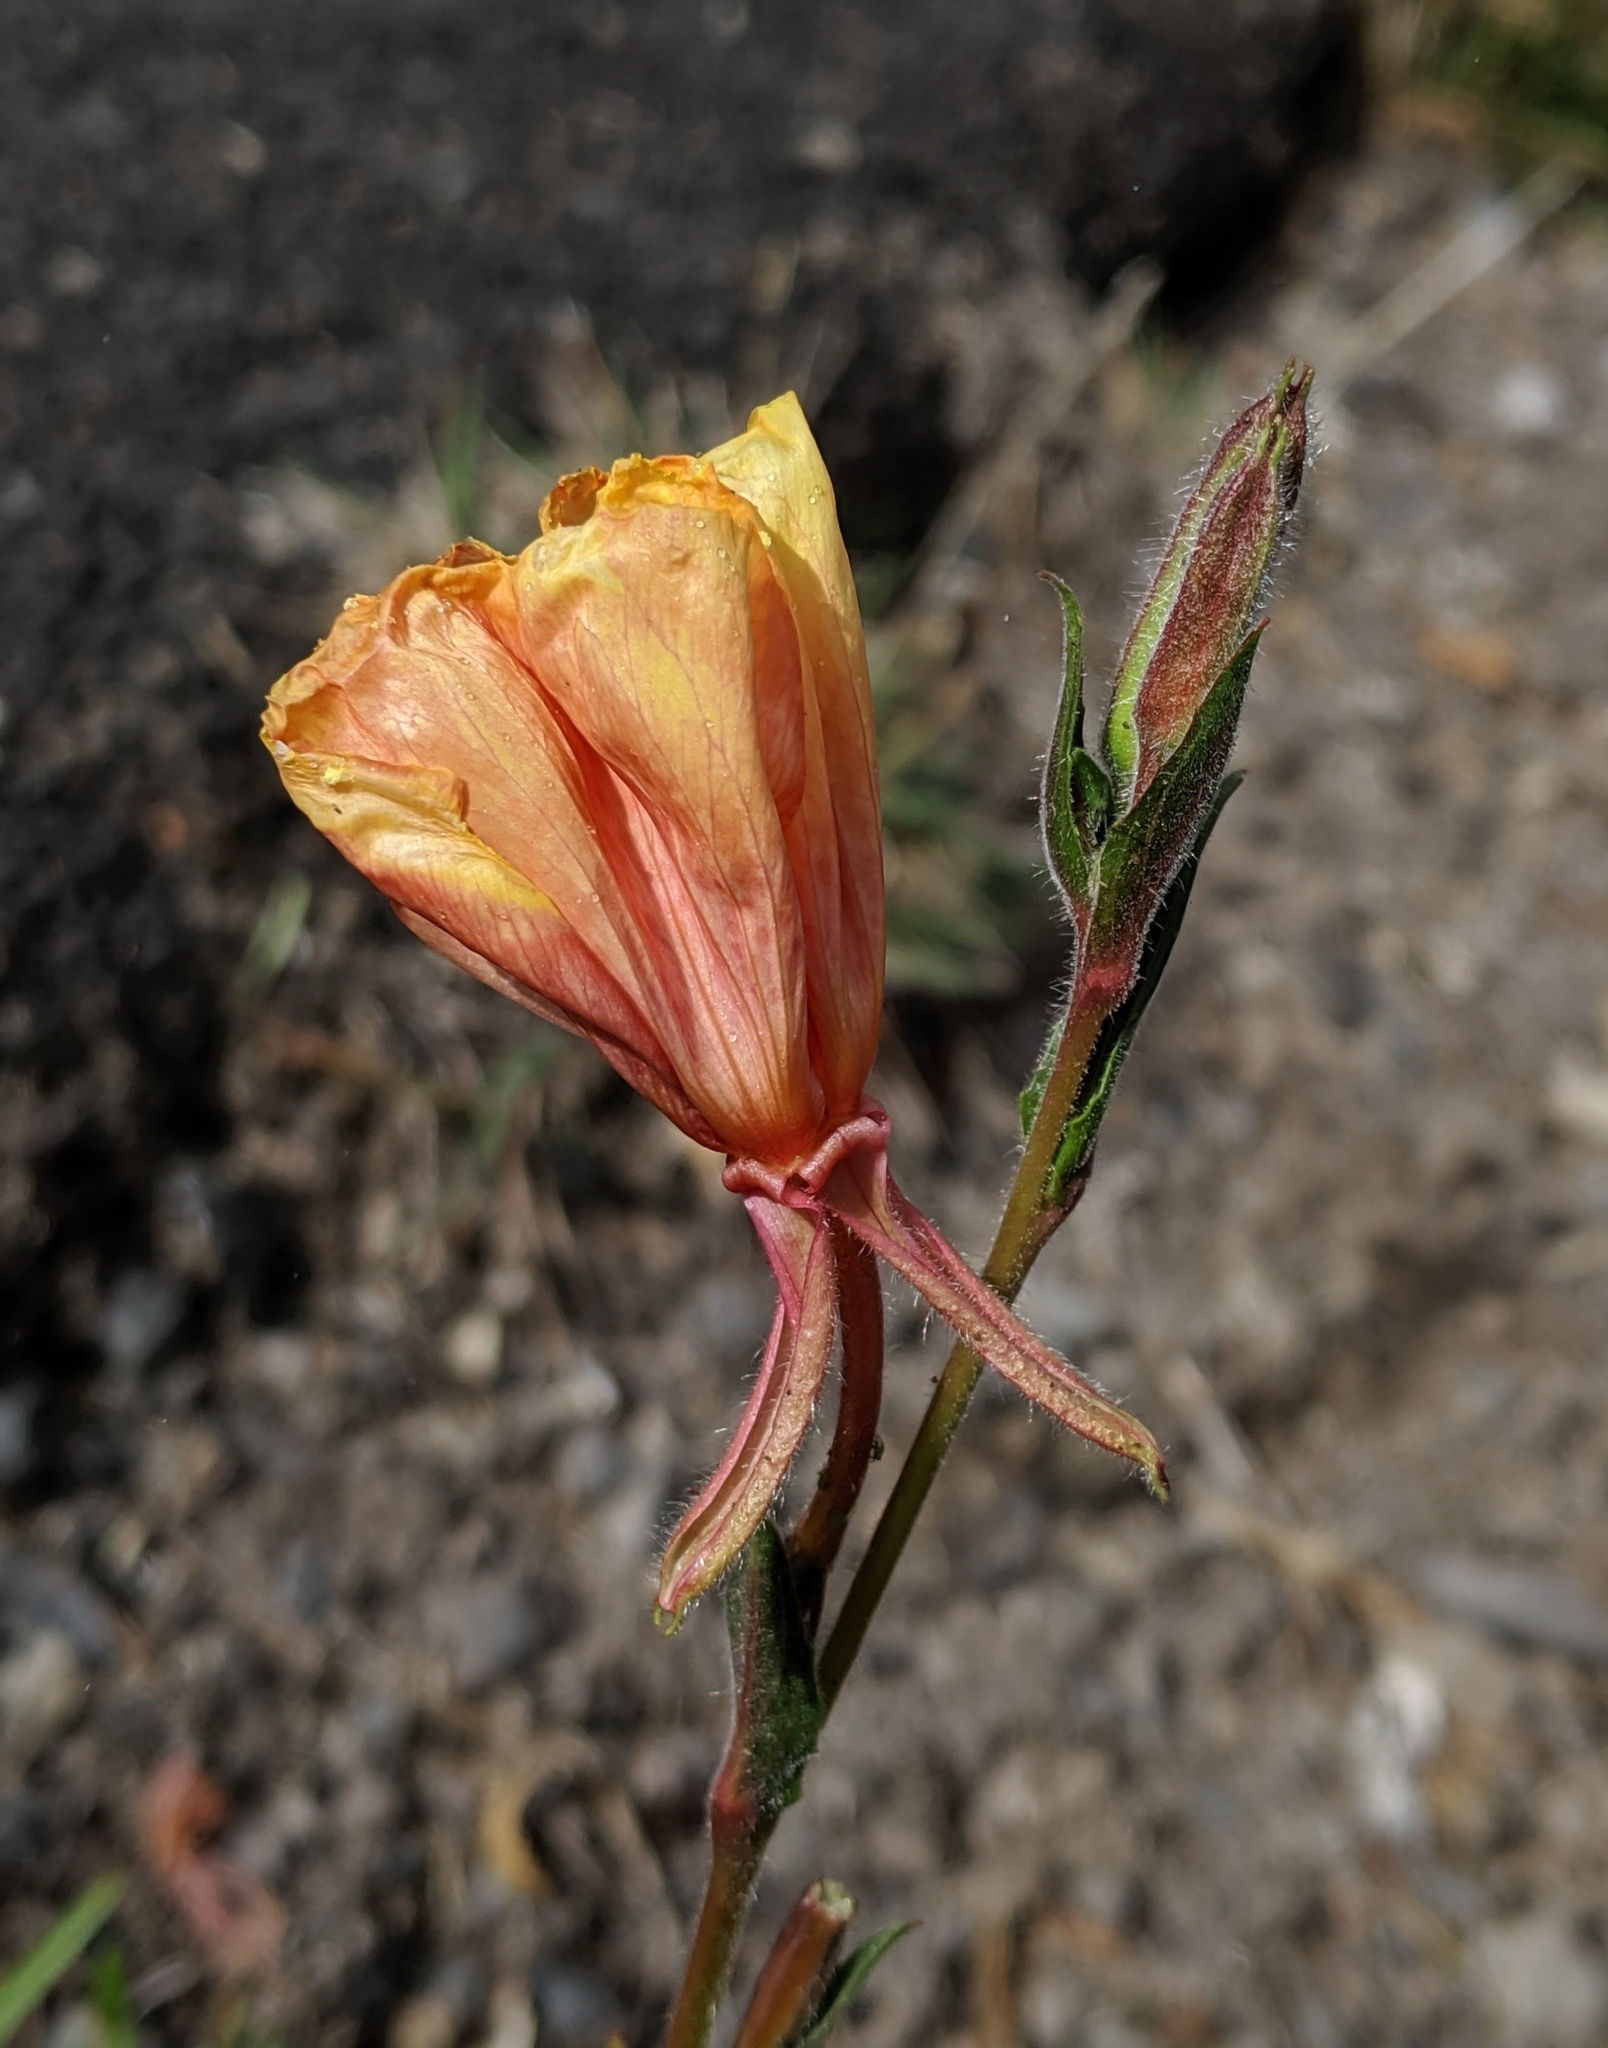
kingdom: Plantae
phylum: Tracheophyta
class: Magnoliopsida
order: Myrtales
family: Onagraceae
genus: Oenothera
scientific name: Oenothera stricta
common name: Fragrant evening-primrose
